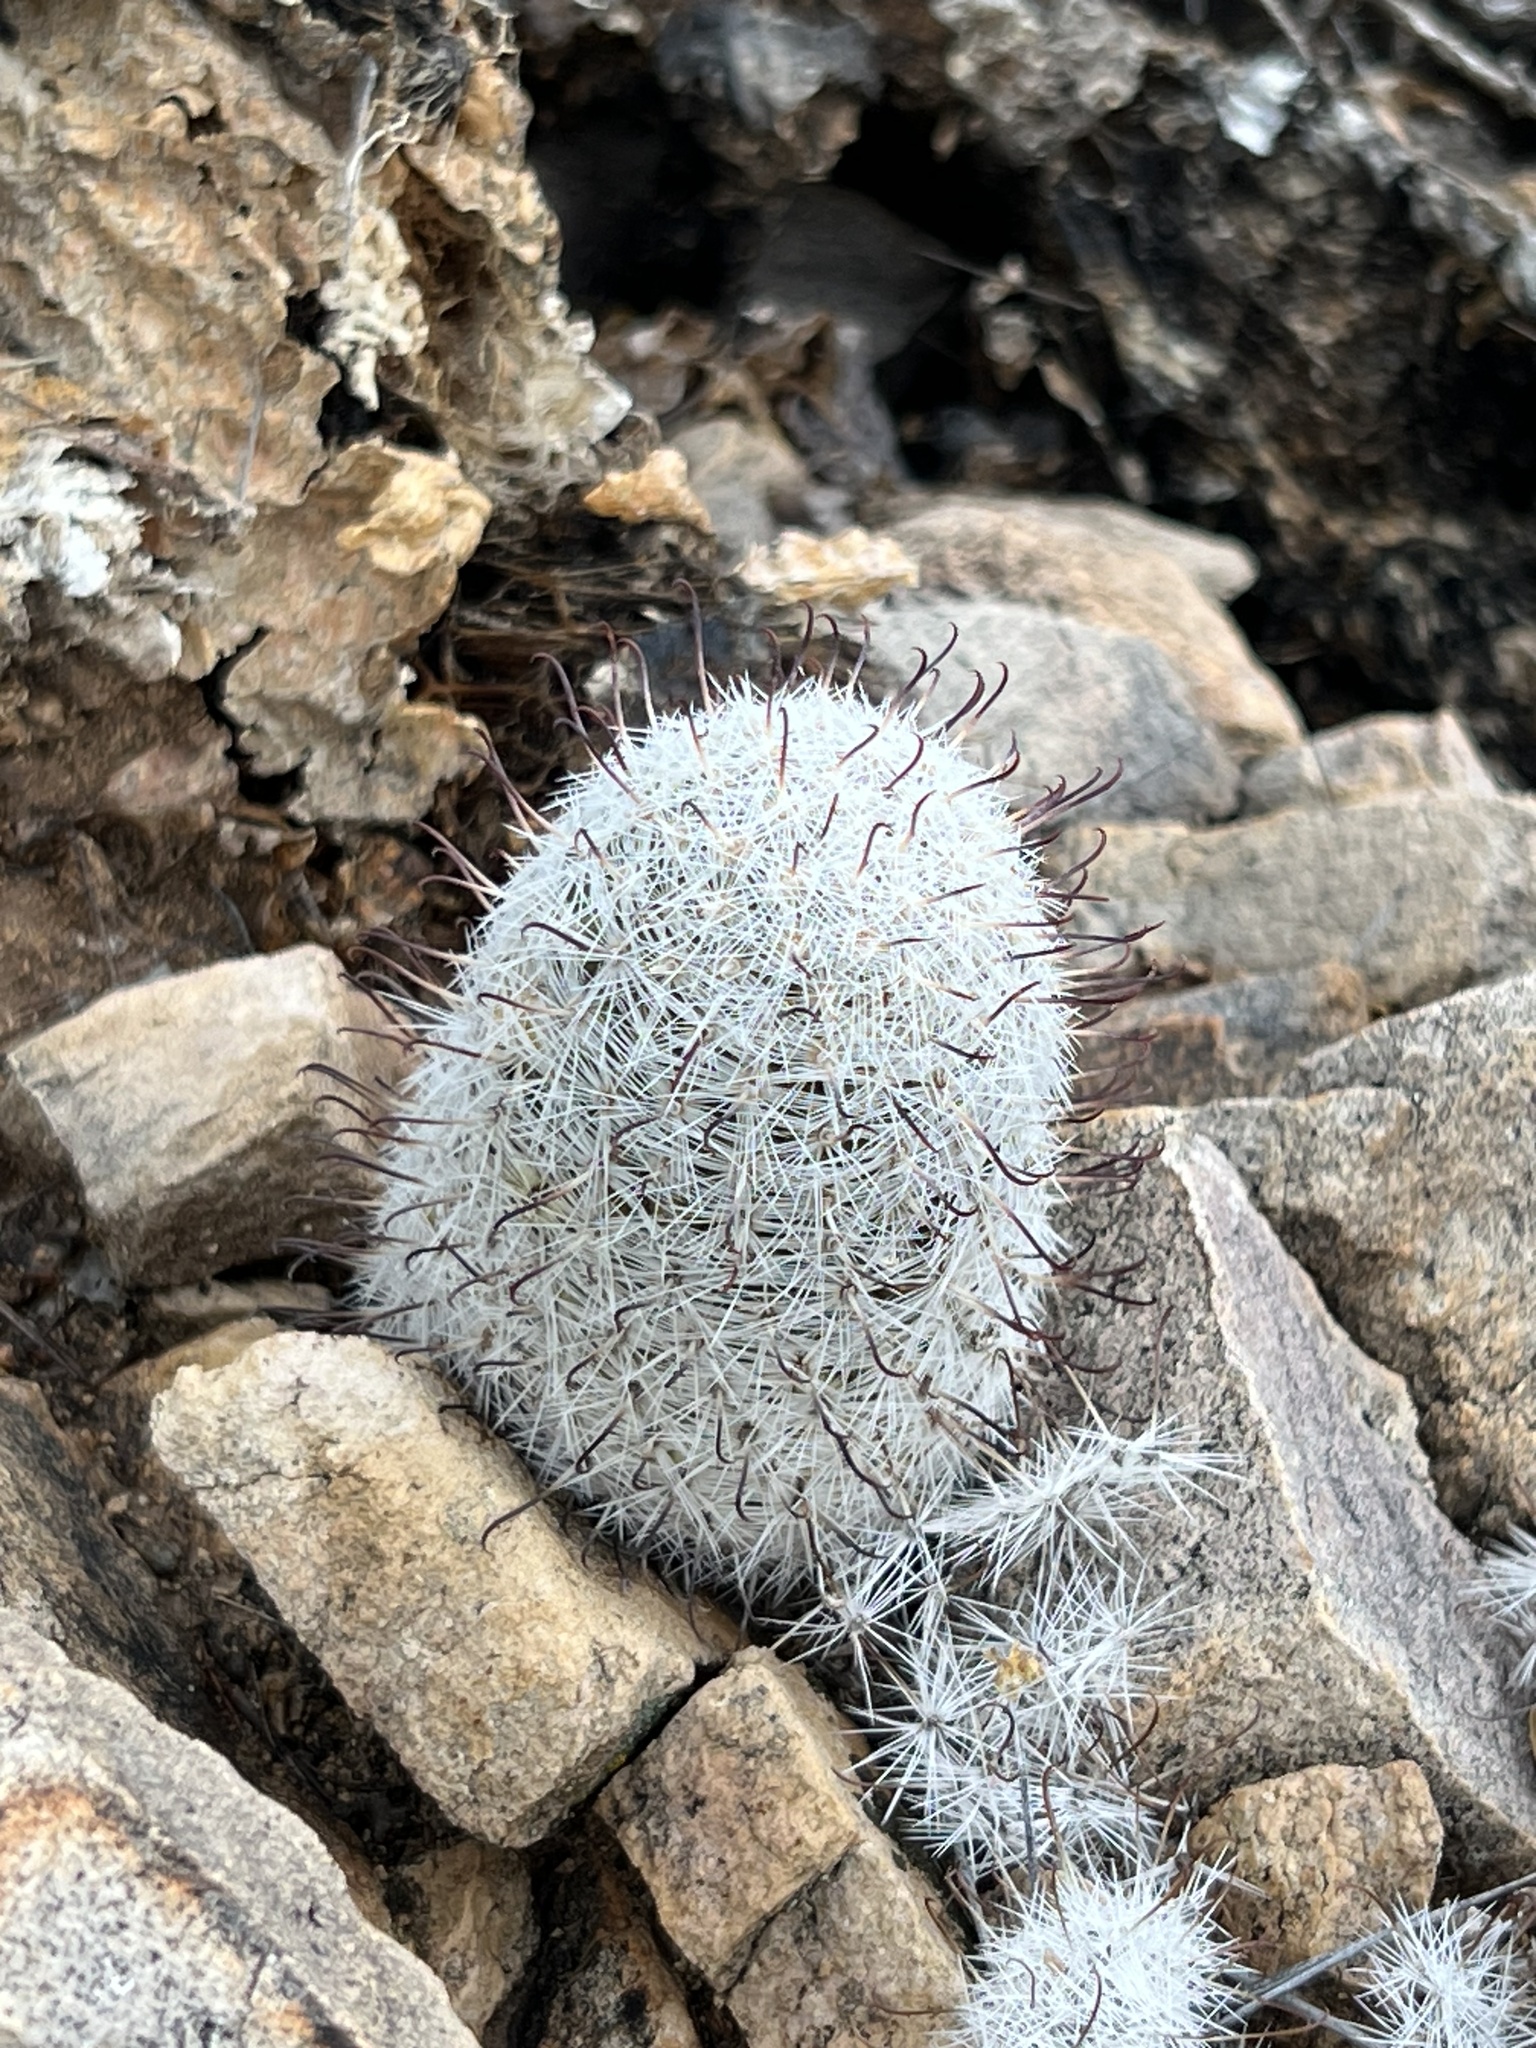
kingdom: Plantae
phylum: Tracheophyta
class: Magnoliopsida
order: Caryophyllales
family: Cactaceae
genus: Cochemiea
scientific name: Cochemiea grahamii
